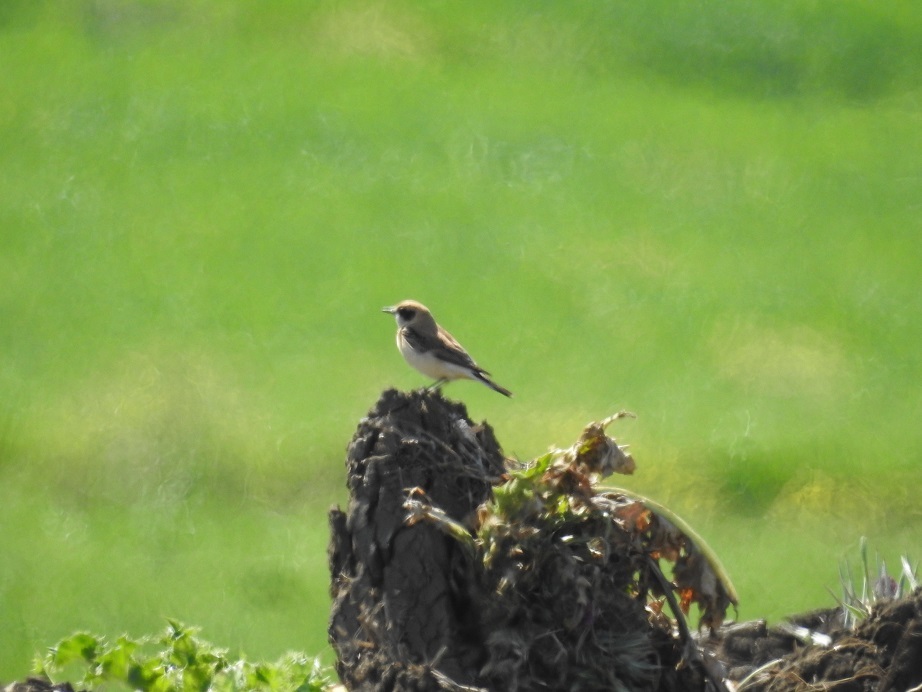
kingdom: Animalia
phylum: Chordata
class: Aves
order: Passeriformes
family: Muscicapidae
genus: Oenanthe
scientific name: Oenanthe hispanica
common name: Black-eared wheatear
